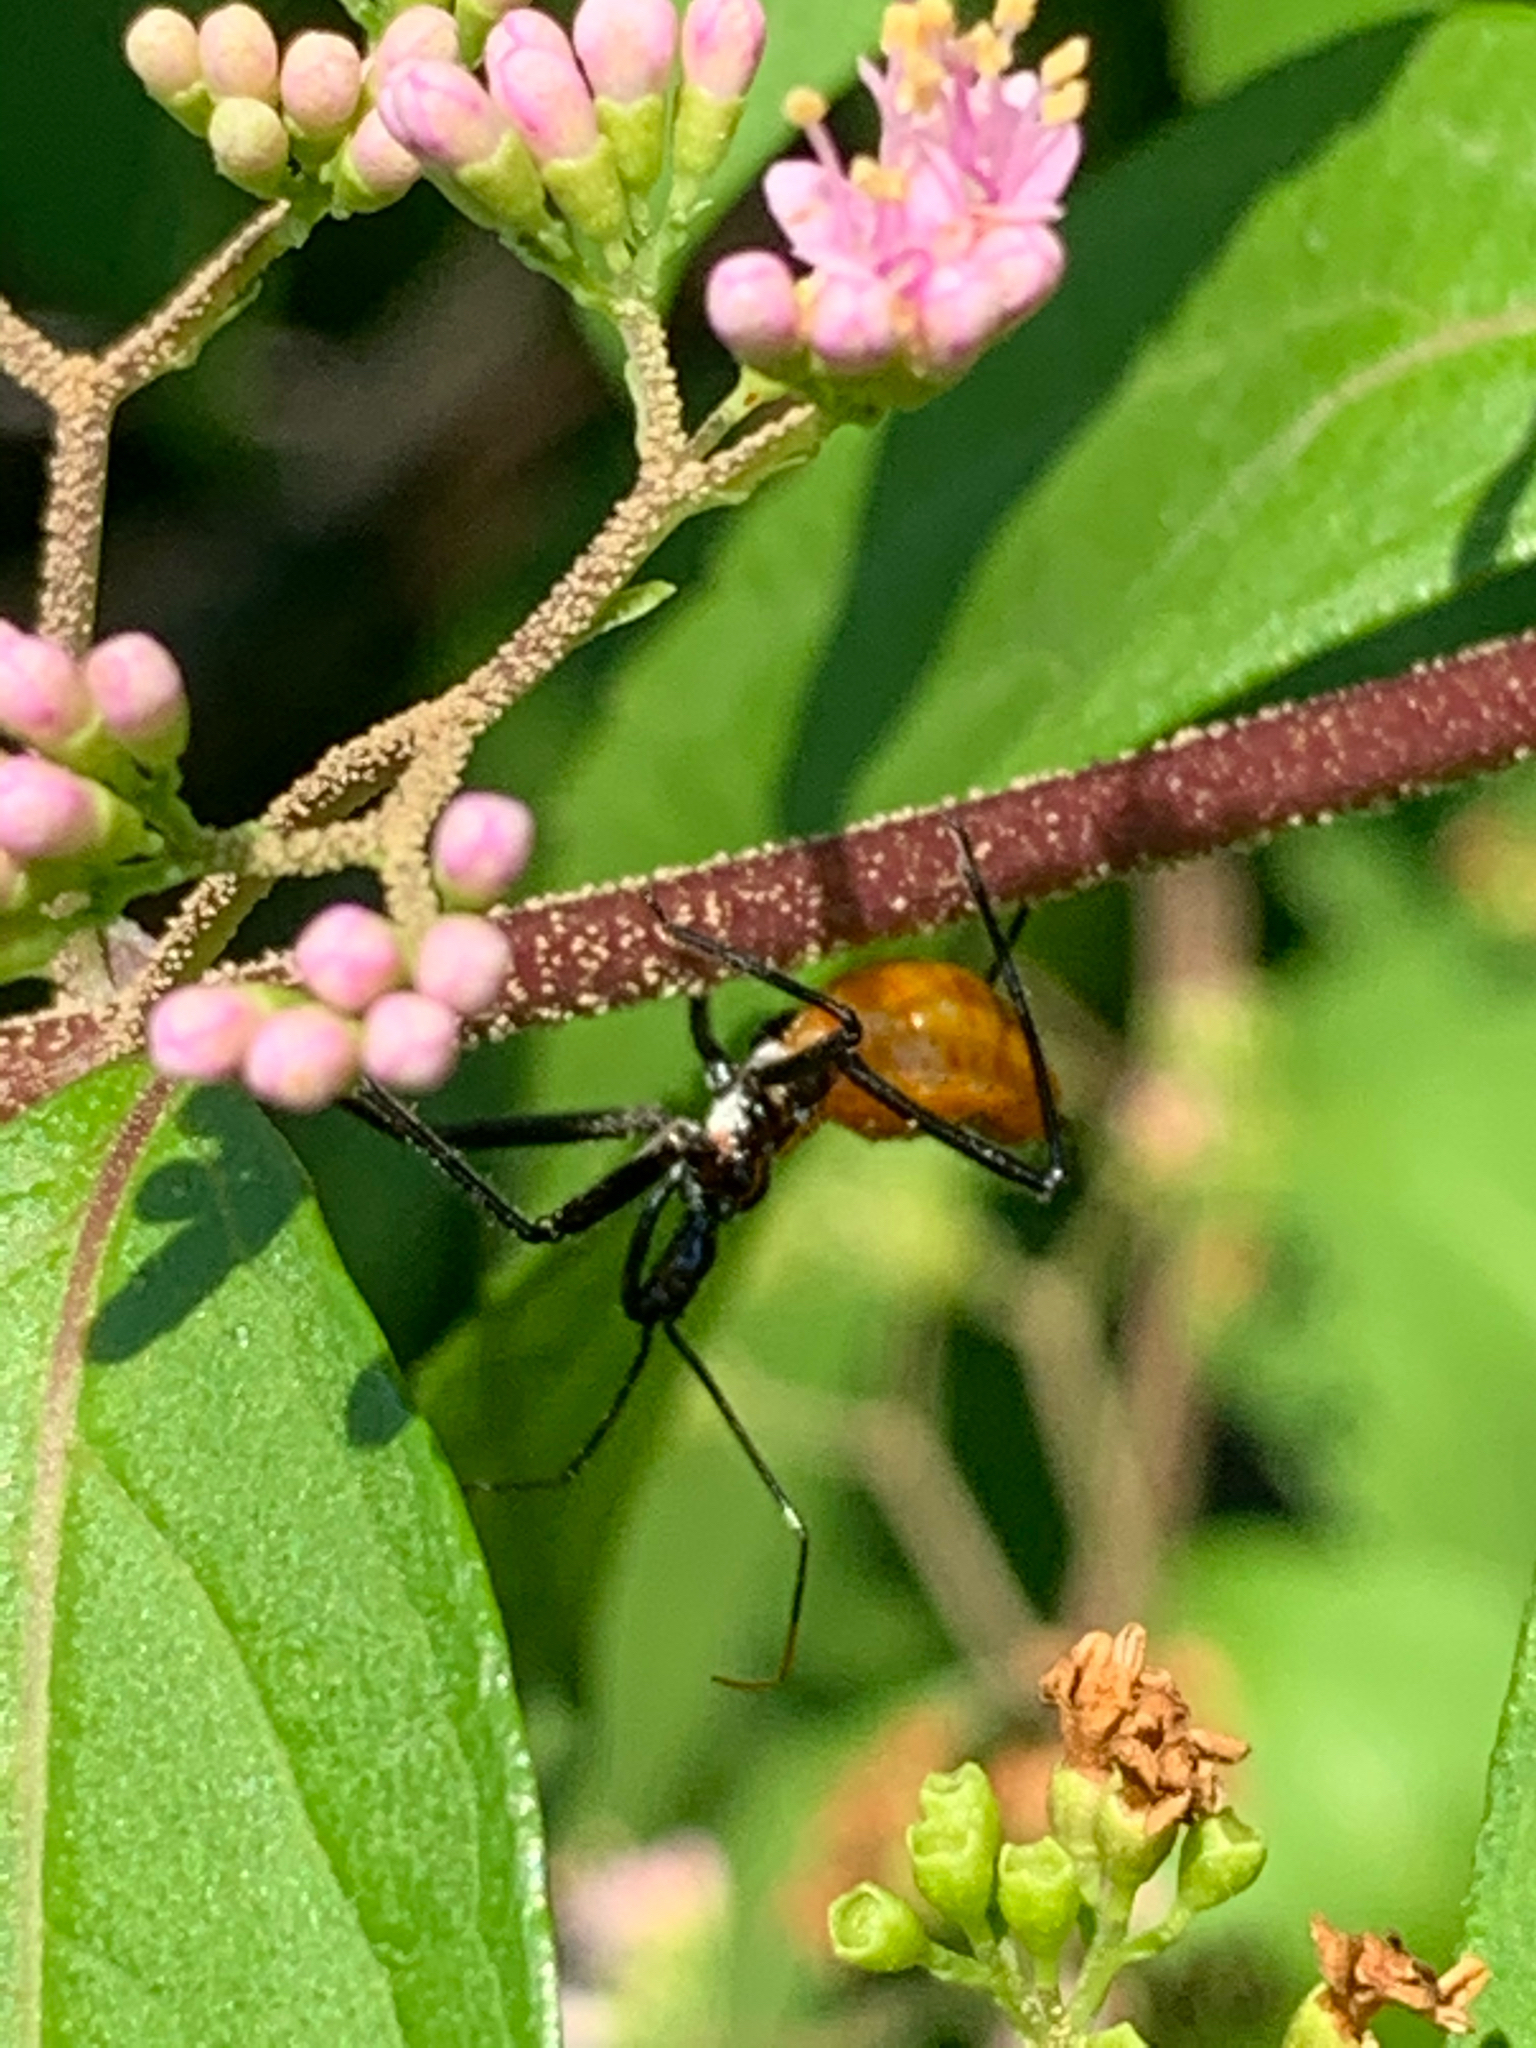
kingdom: Animalia
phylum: Arthropoda
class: Insecta
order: Hemiptera
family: Reduviidae
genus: Arilus
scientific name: Arilus cristatus
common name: North american wheel bug
